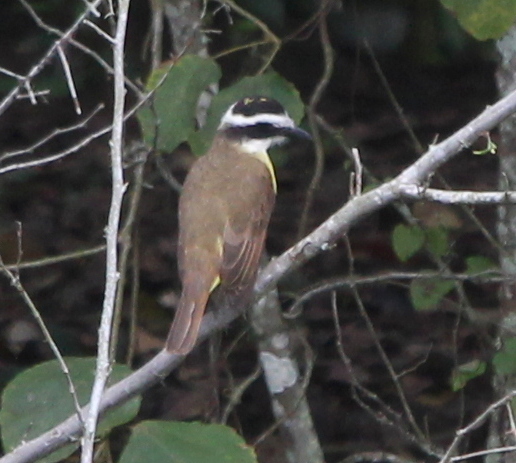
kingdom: Animalia
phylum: Chordata
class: Aves
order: Passeriformes
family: Tyrannidae
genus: Pitangus
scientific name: Pitangus sulphuratus
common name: Great kiskadee
